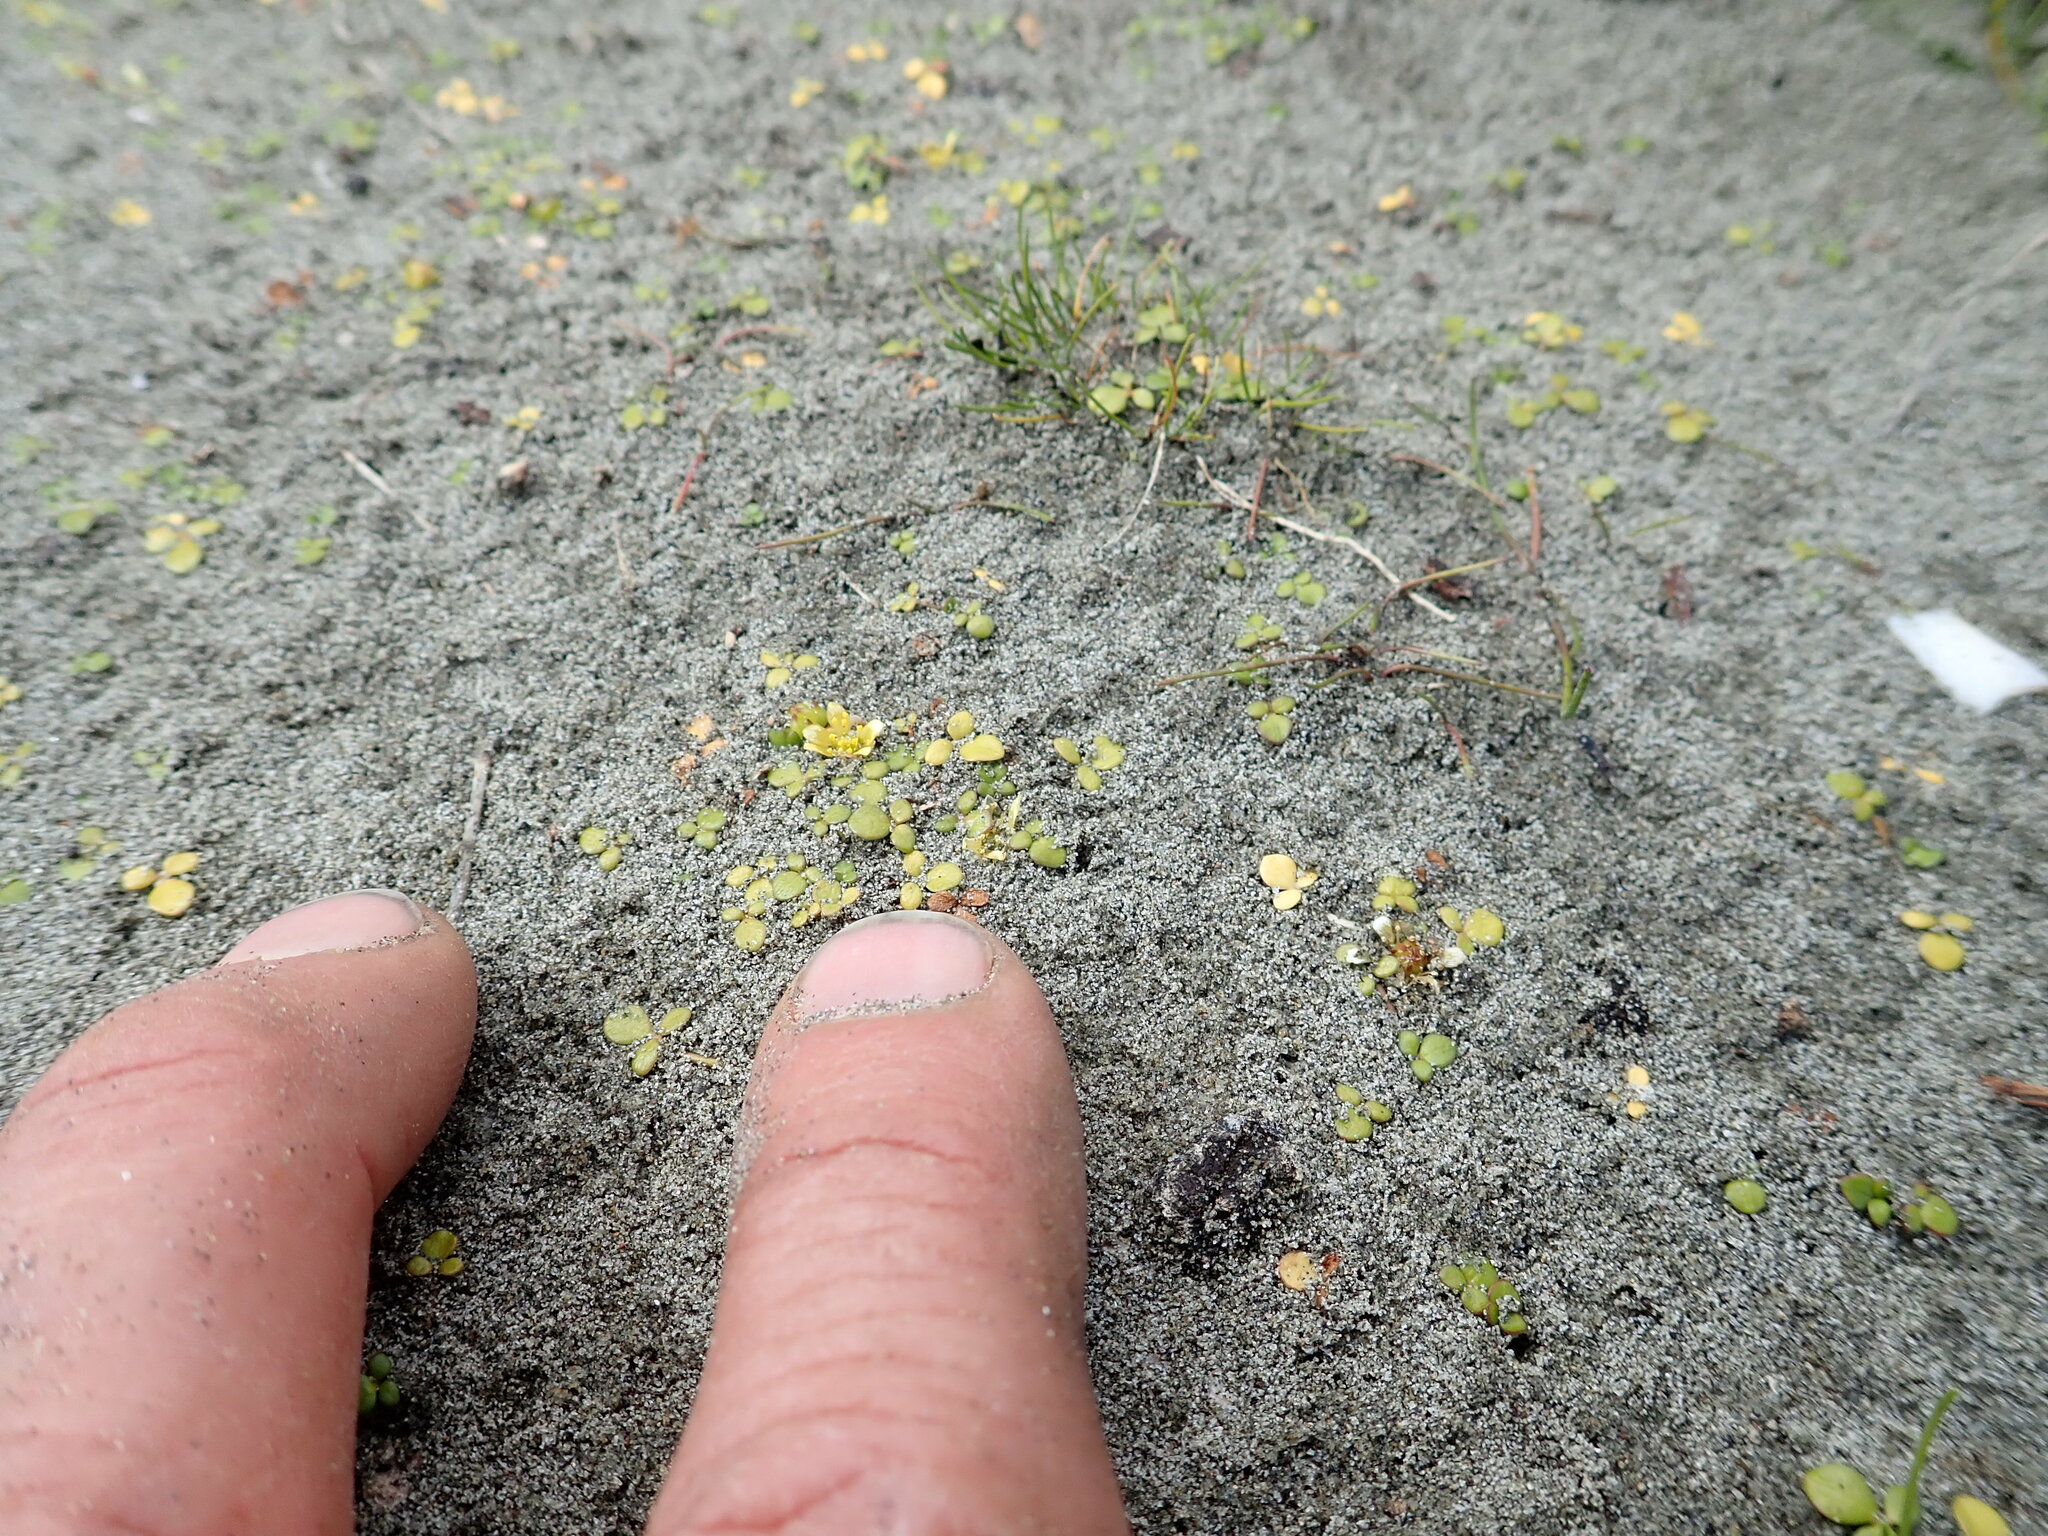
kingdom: Plantae
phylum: Tracheophyta
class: Magnoliopsida
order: Ranunculales
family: Ranunculaceae
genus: Ranunculus
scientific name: Ranunculus acaulis
